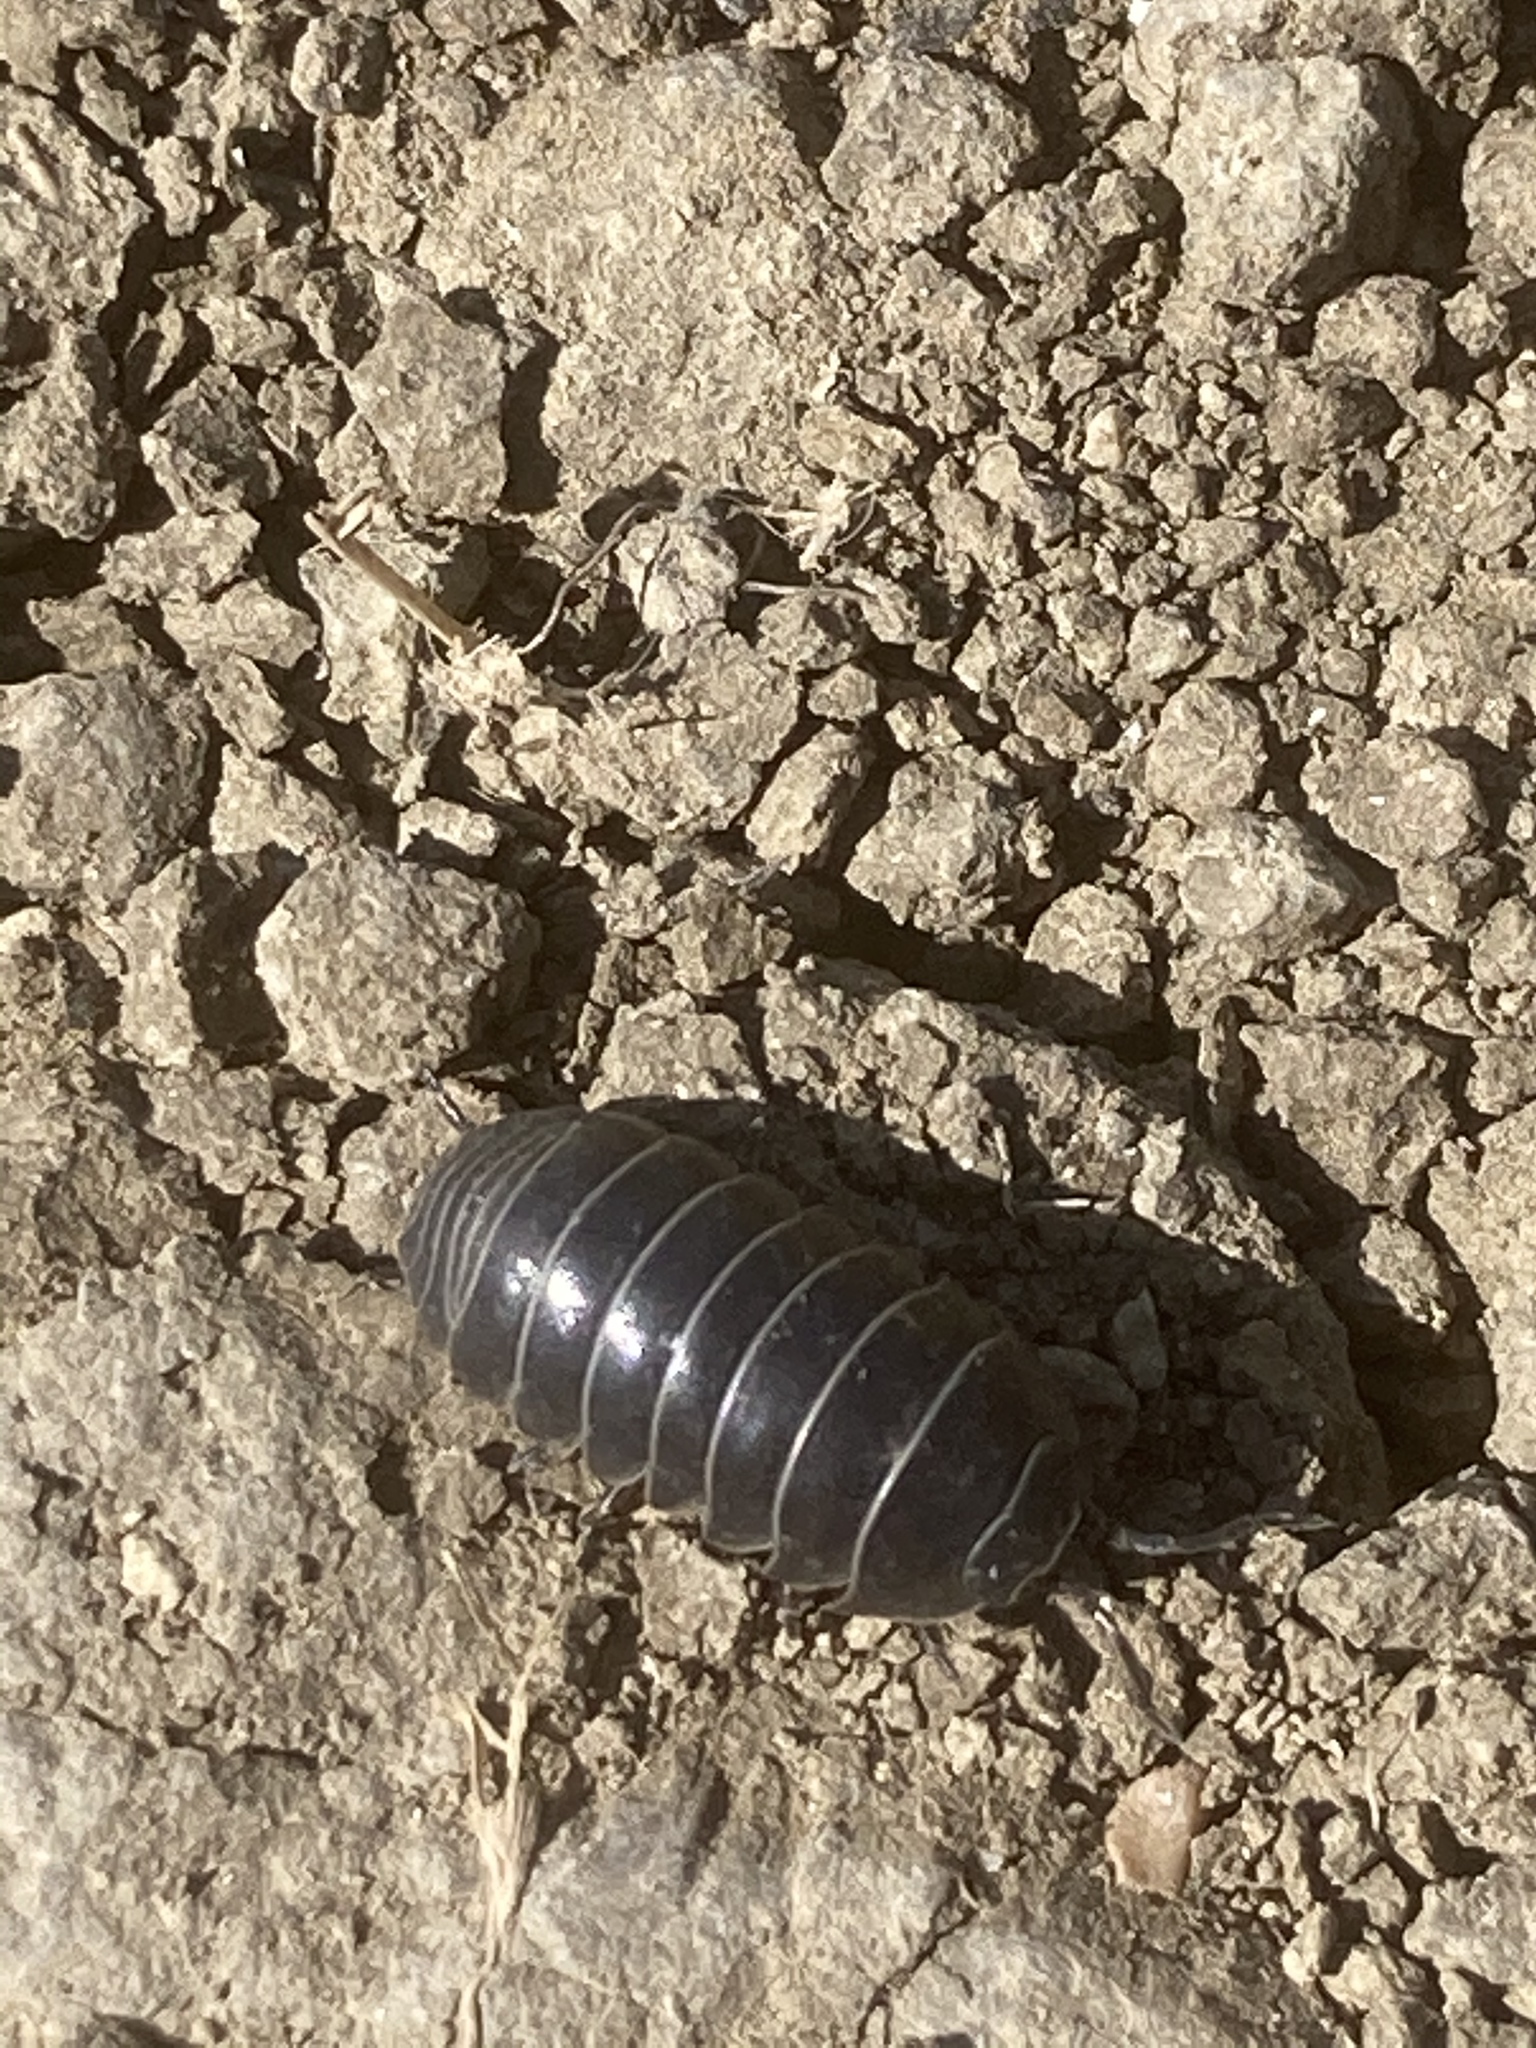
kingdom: Animalia
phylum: Arthropoda
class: Malacostraca
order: Isopoda
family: Armadillidiidae
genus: Armadillidium
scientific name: Armadillidium vulgare
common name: Common pill woodlouse
